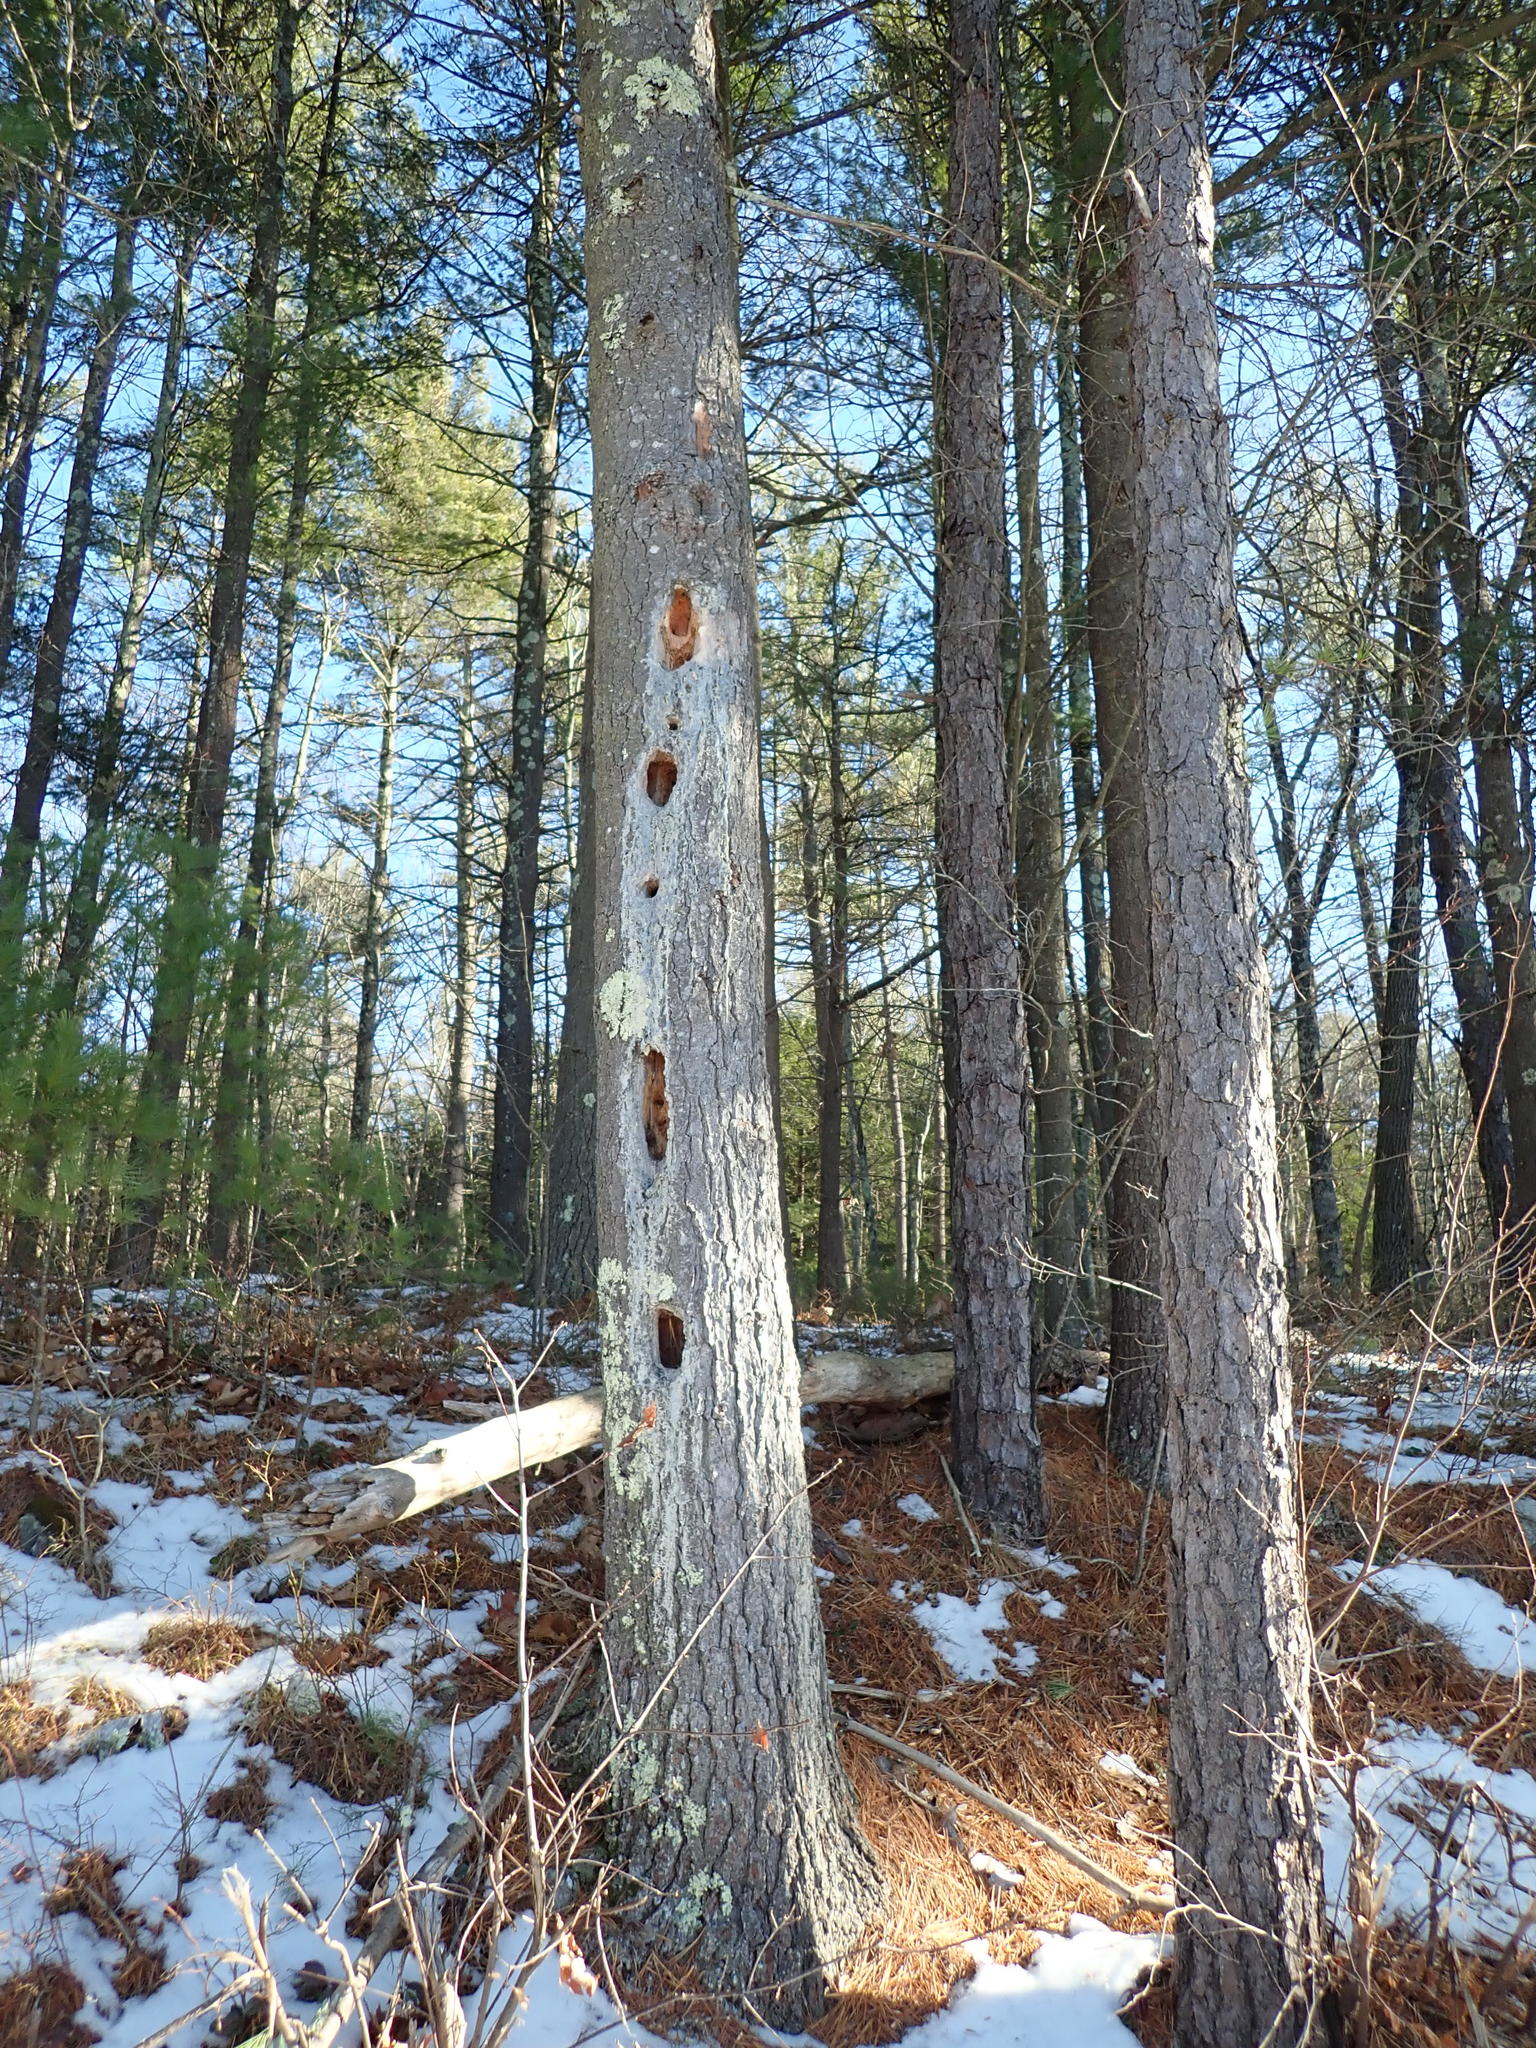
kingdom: Animalia
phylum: Chordata
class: Aves
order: Piciformes
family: Picidae
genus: Dryocopus
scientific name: Dryocopus pileatus
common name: Pileated woodpecker
